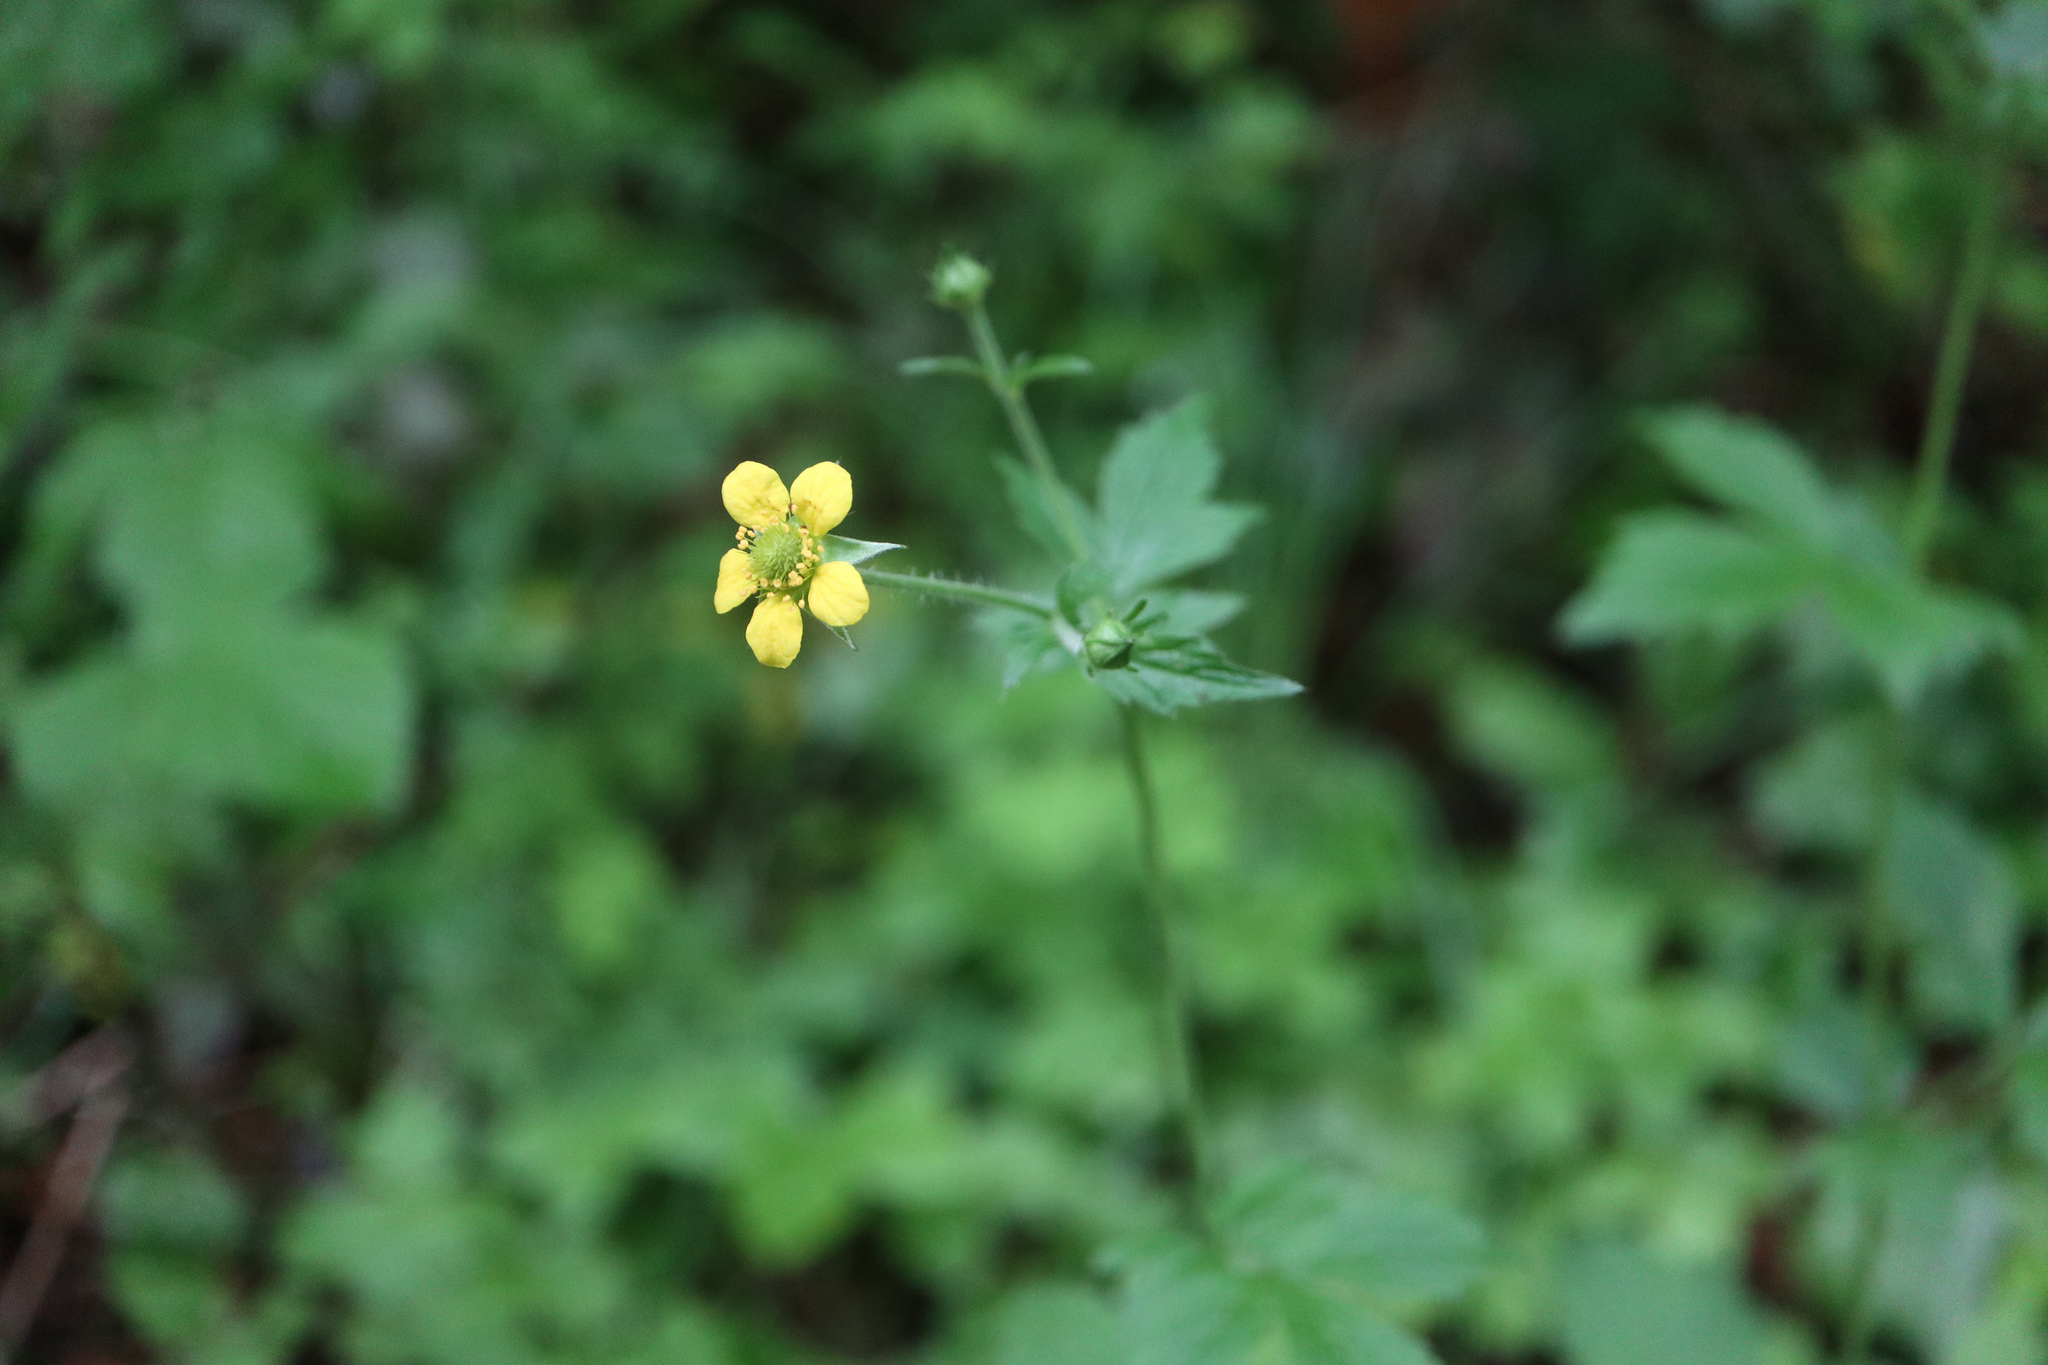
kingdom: Plantae
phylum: Tracheophyta
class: Magnoliopsida
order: Rosales
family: Rosaceae
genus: Geum
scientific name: Geum urbanum
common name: Wood avens
